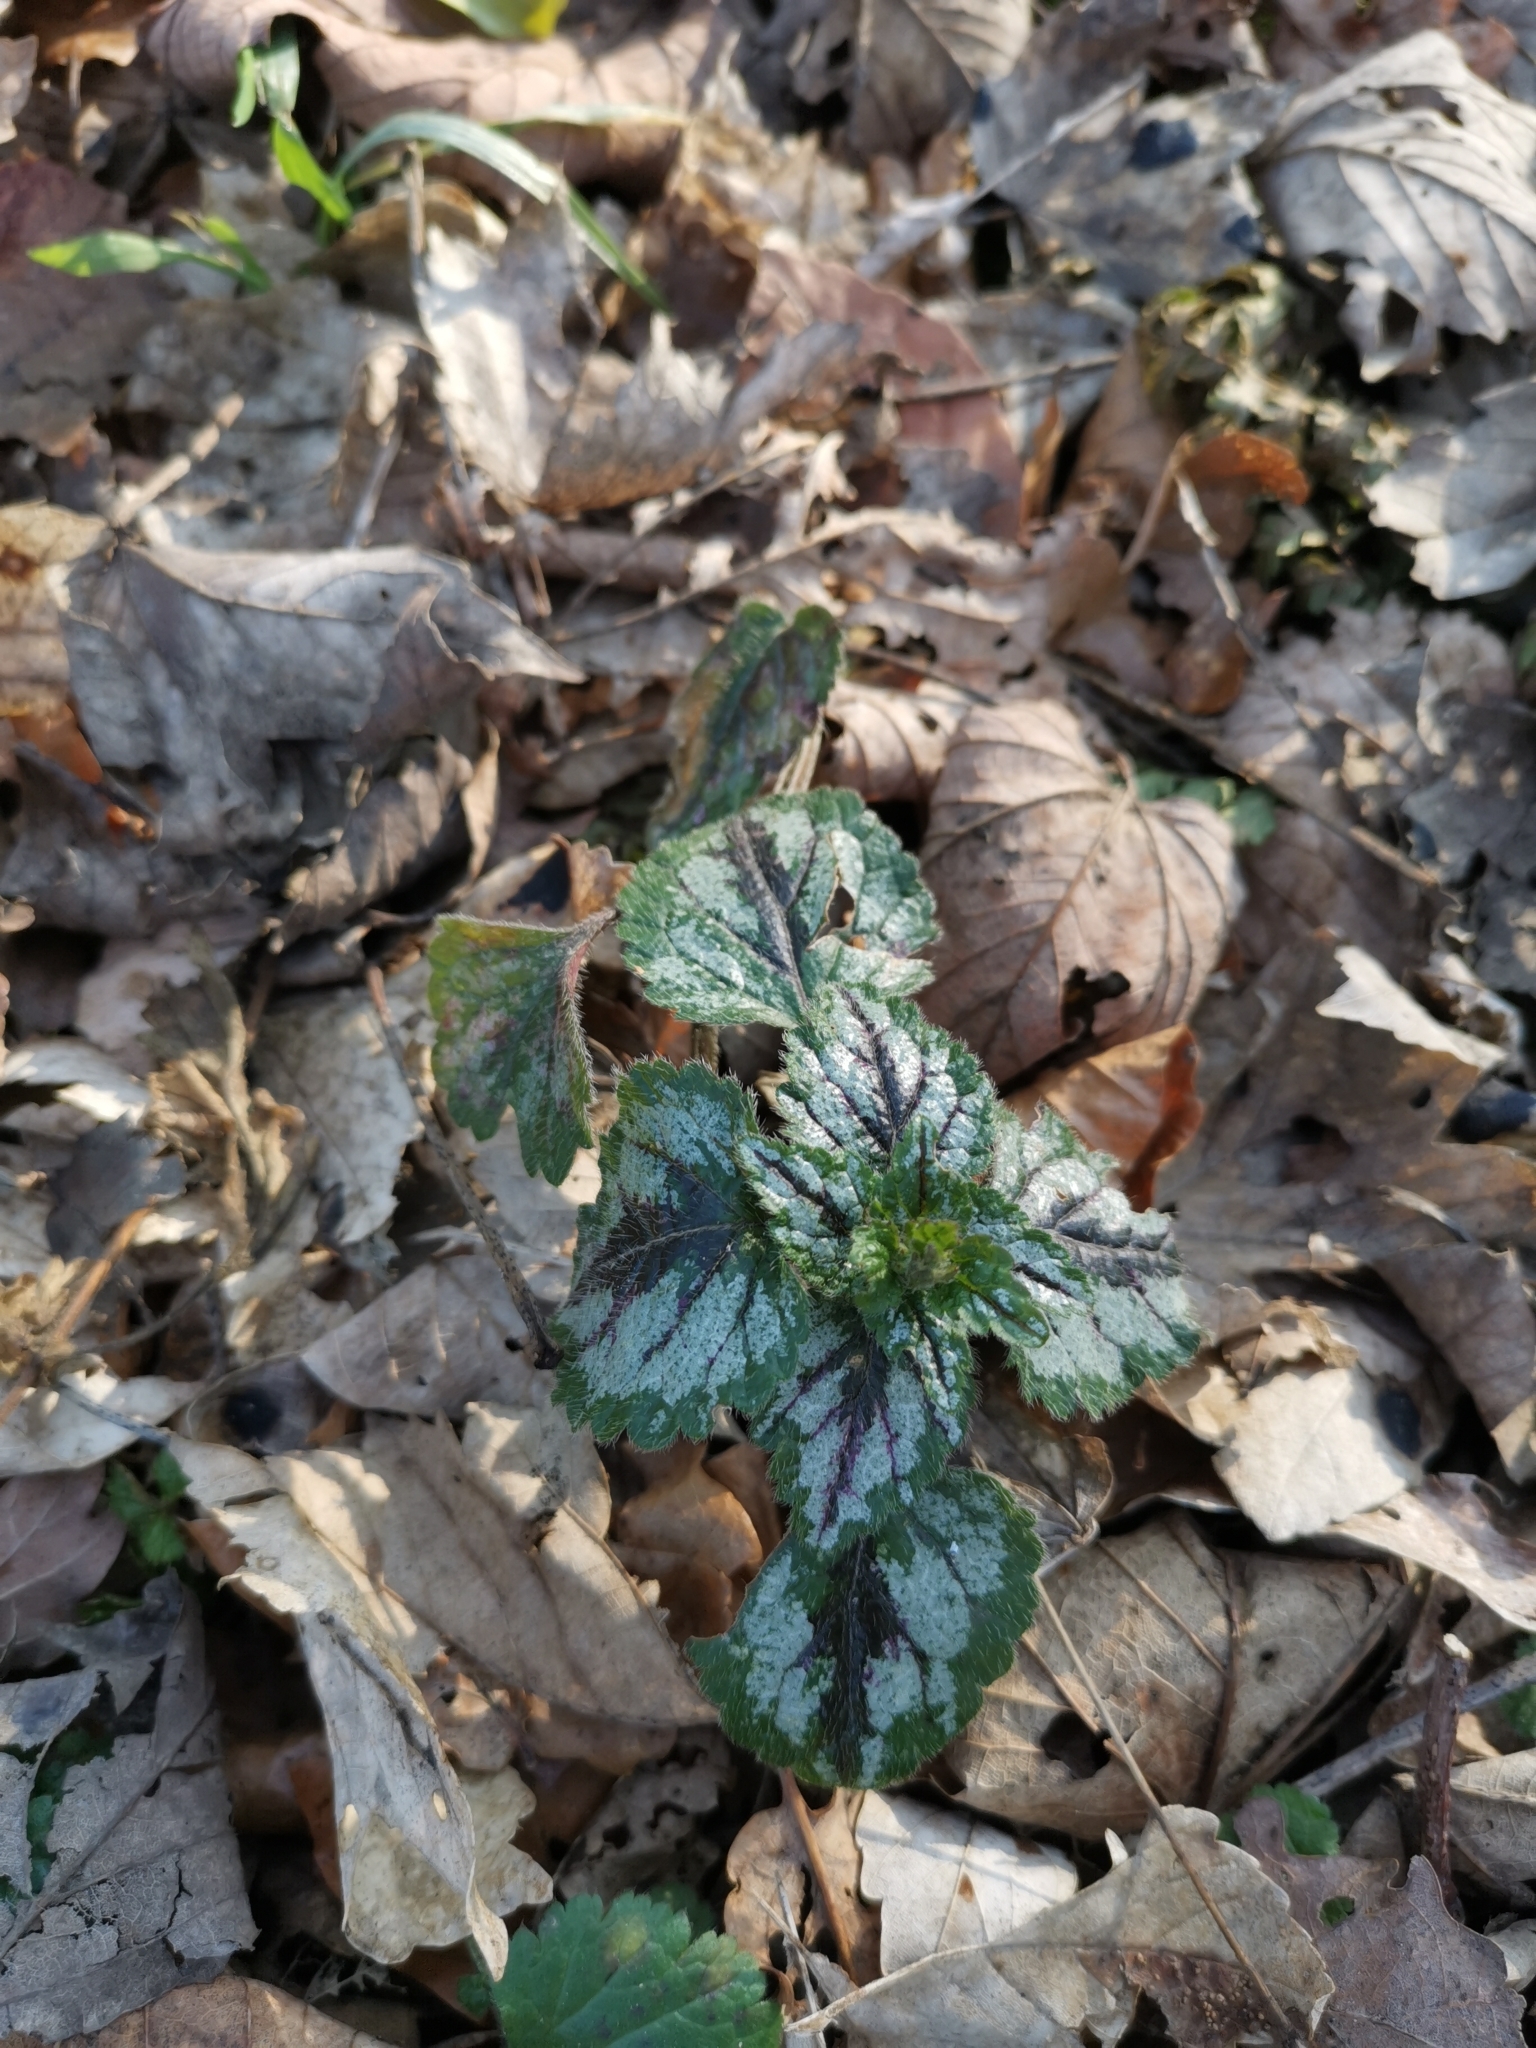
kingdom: Plantae
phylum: Tracheophyta
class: Magnoliopsida
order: Lamiales
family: Lamiaceae
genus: Lamium
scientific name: Lamium galeobdolon
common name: Yellow archangel
